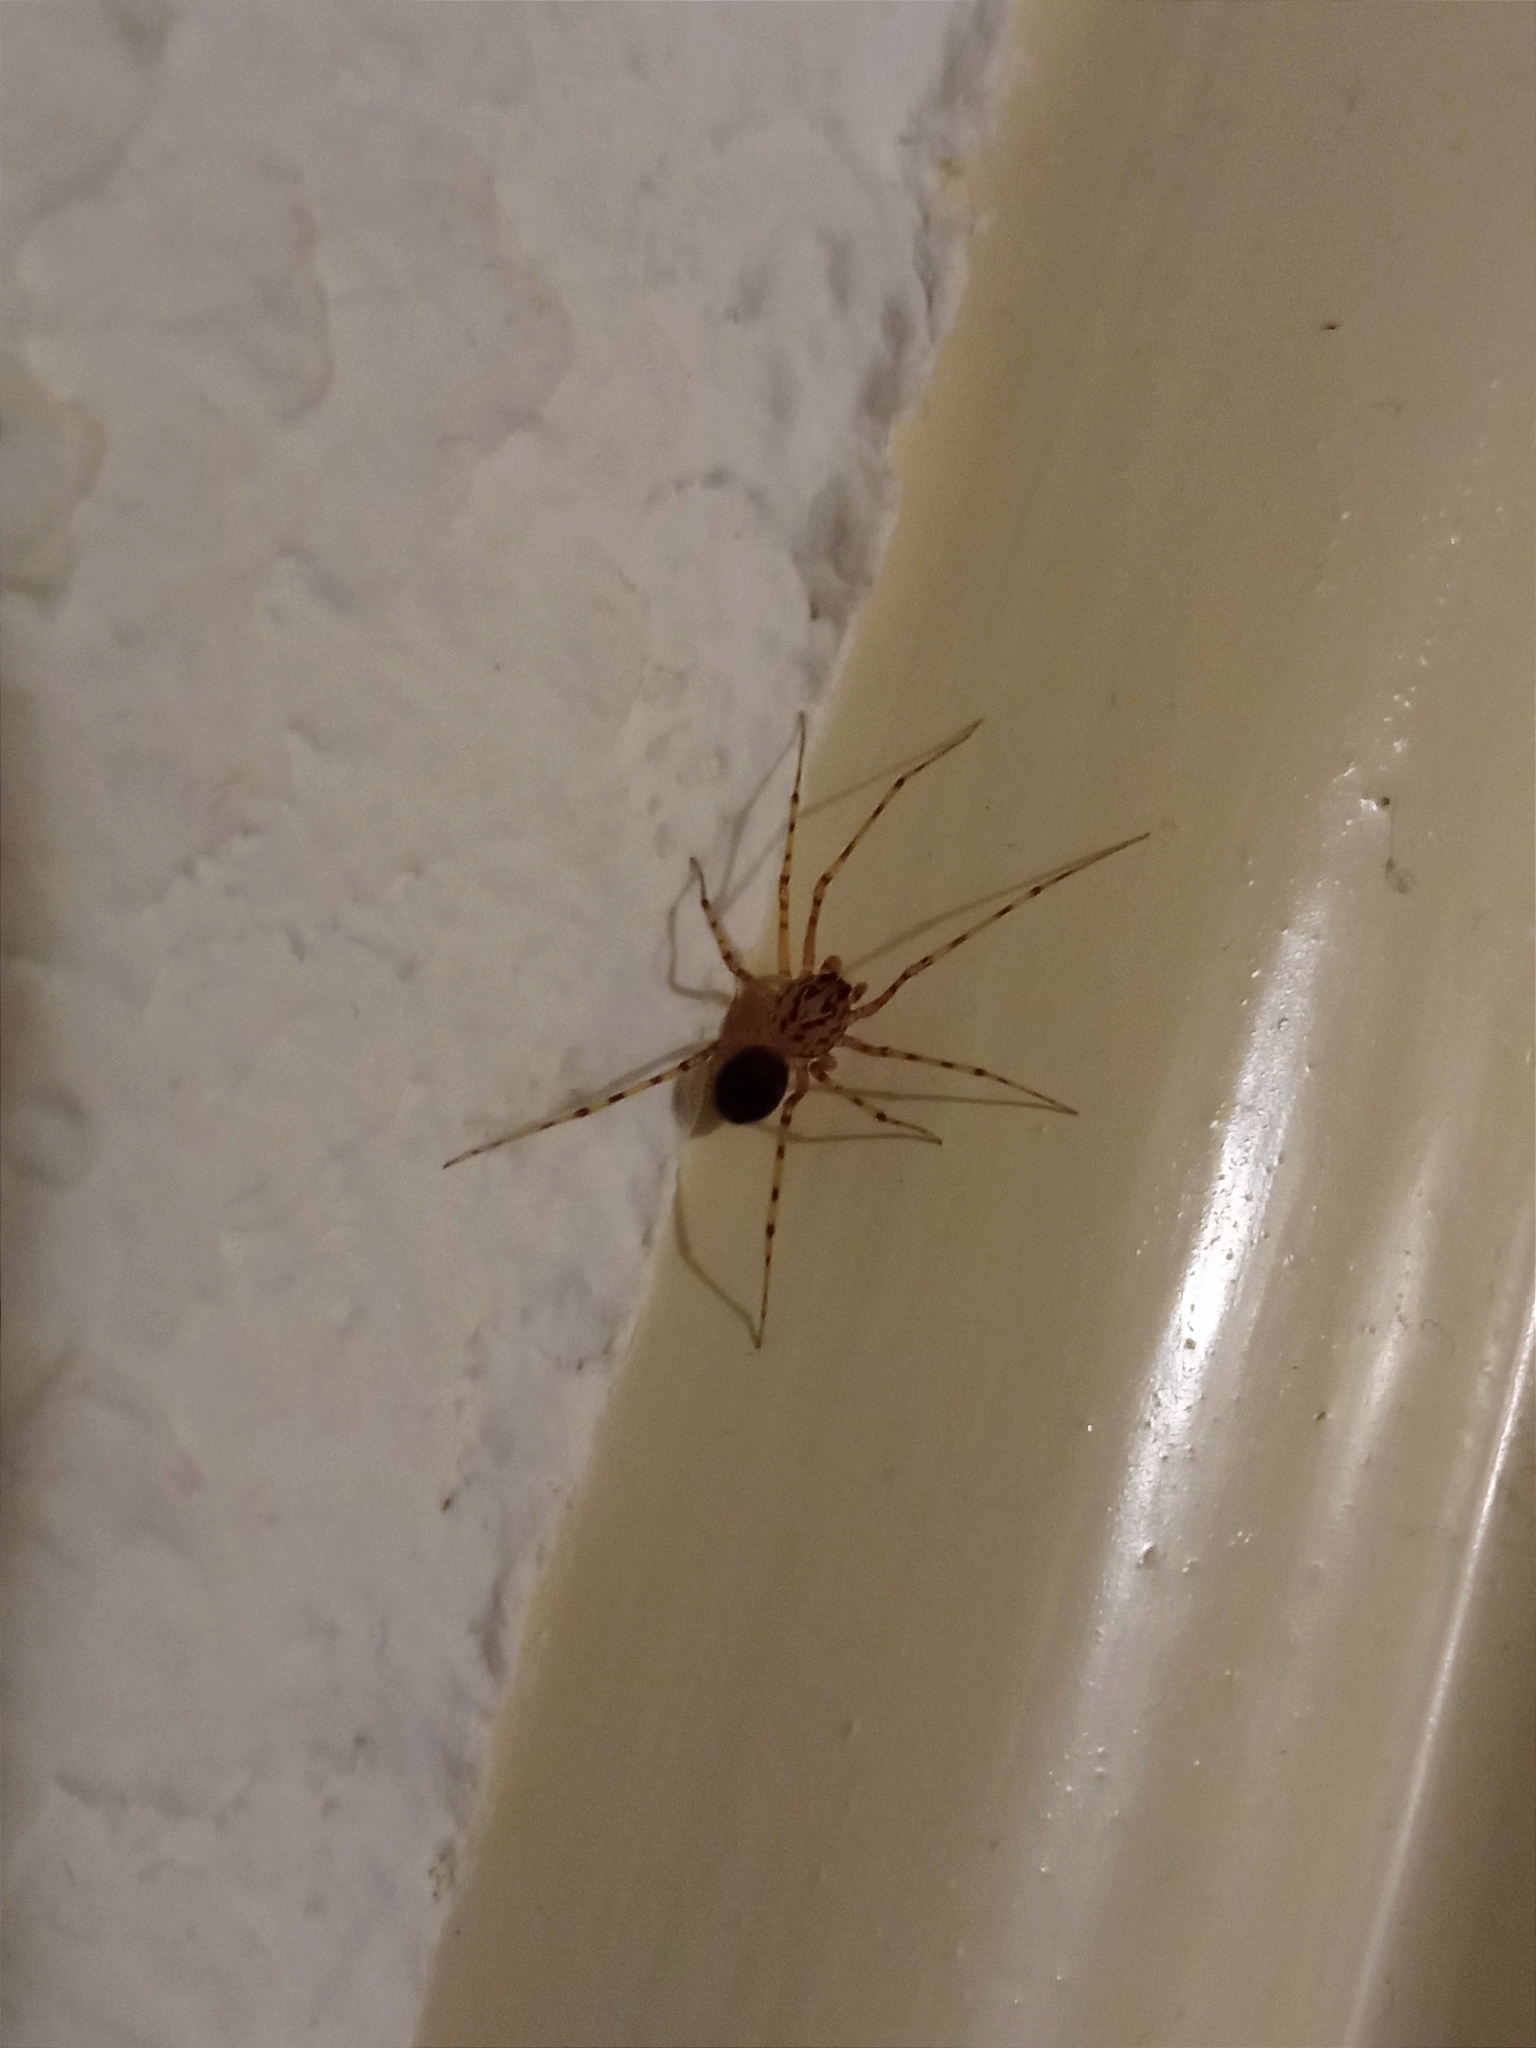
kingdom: Animalia
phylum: Arthropoda
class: Arachnida
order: Araneae
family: Scytodidae
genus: Scytodes
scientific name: Scytodes thoracica
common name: Spitting spider
